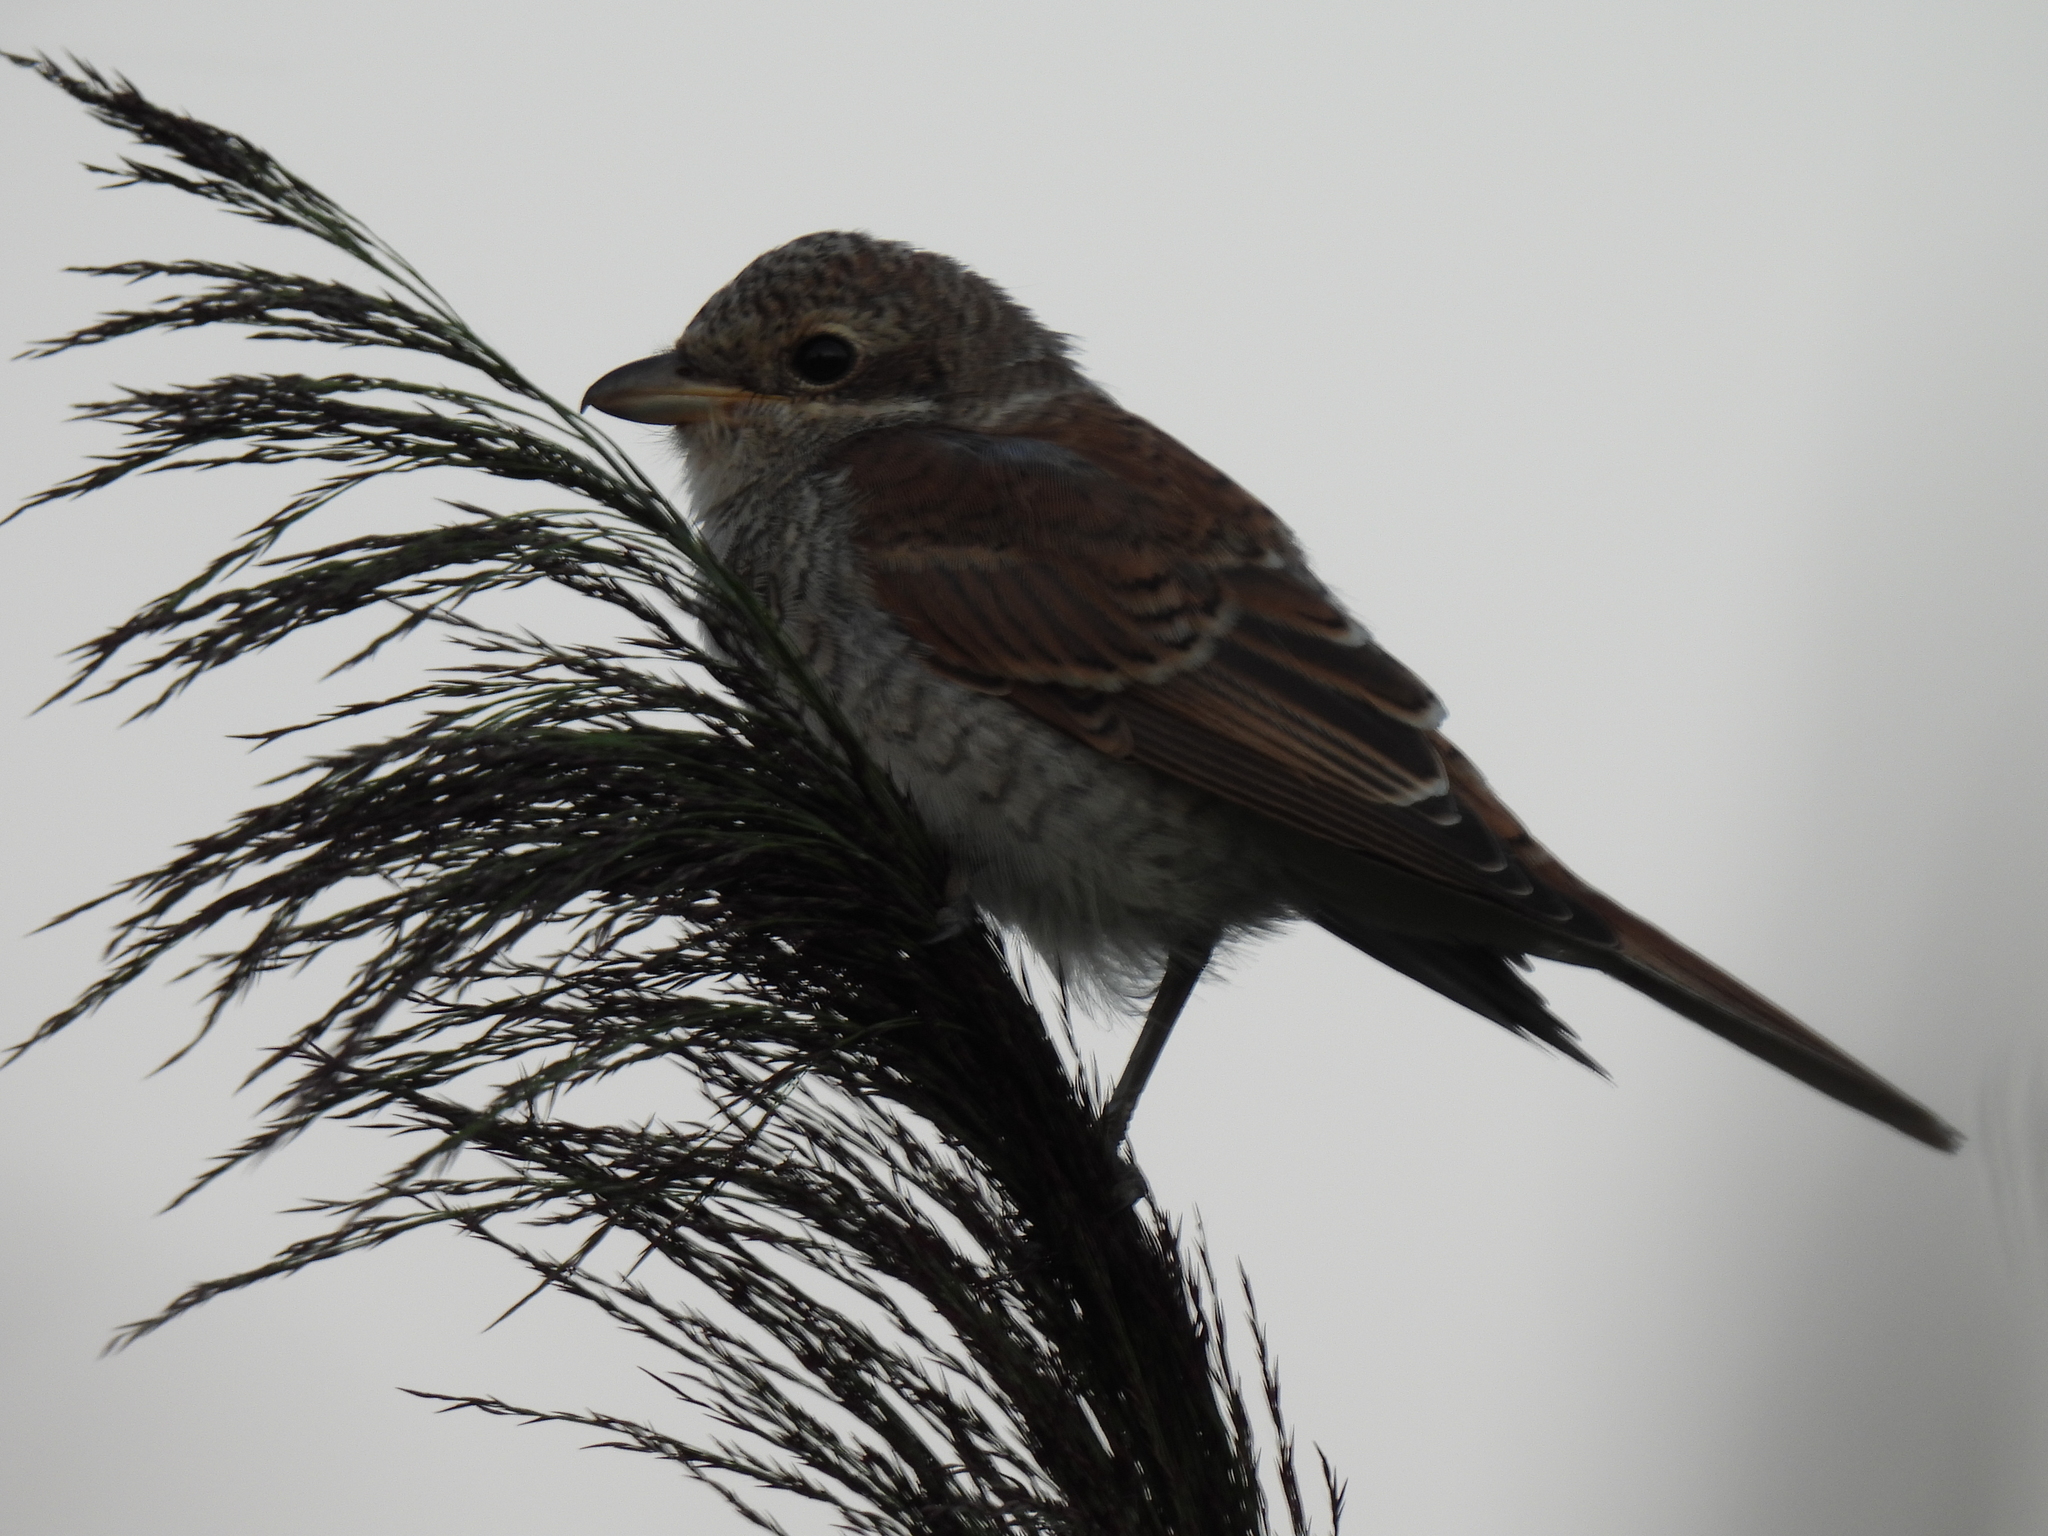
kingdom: Animalia
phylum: Chordata
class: Aves
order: Passeriformes
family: Laniidae
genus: Lanius
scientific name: Lanius collurio
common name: Red-backed shrike
